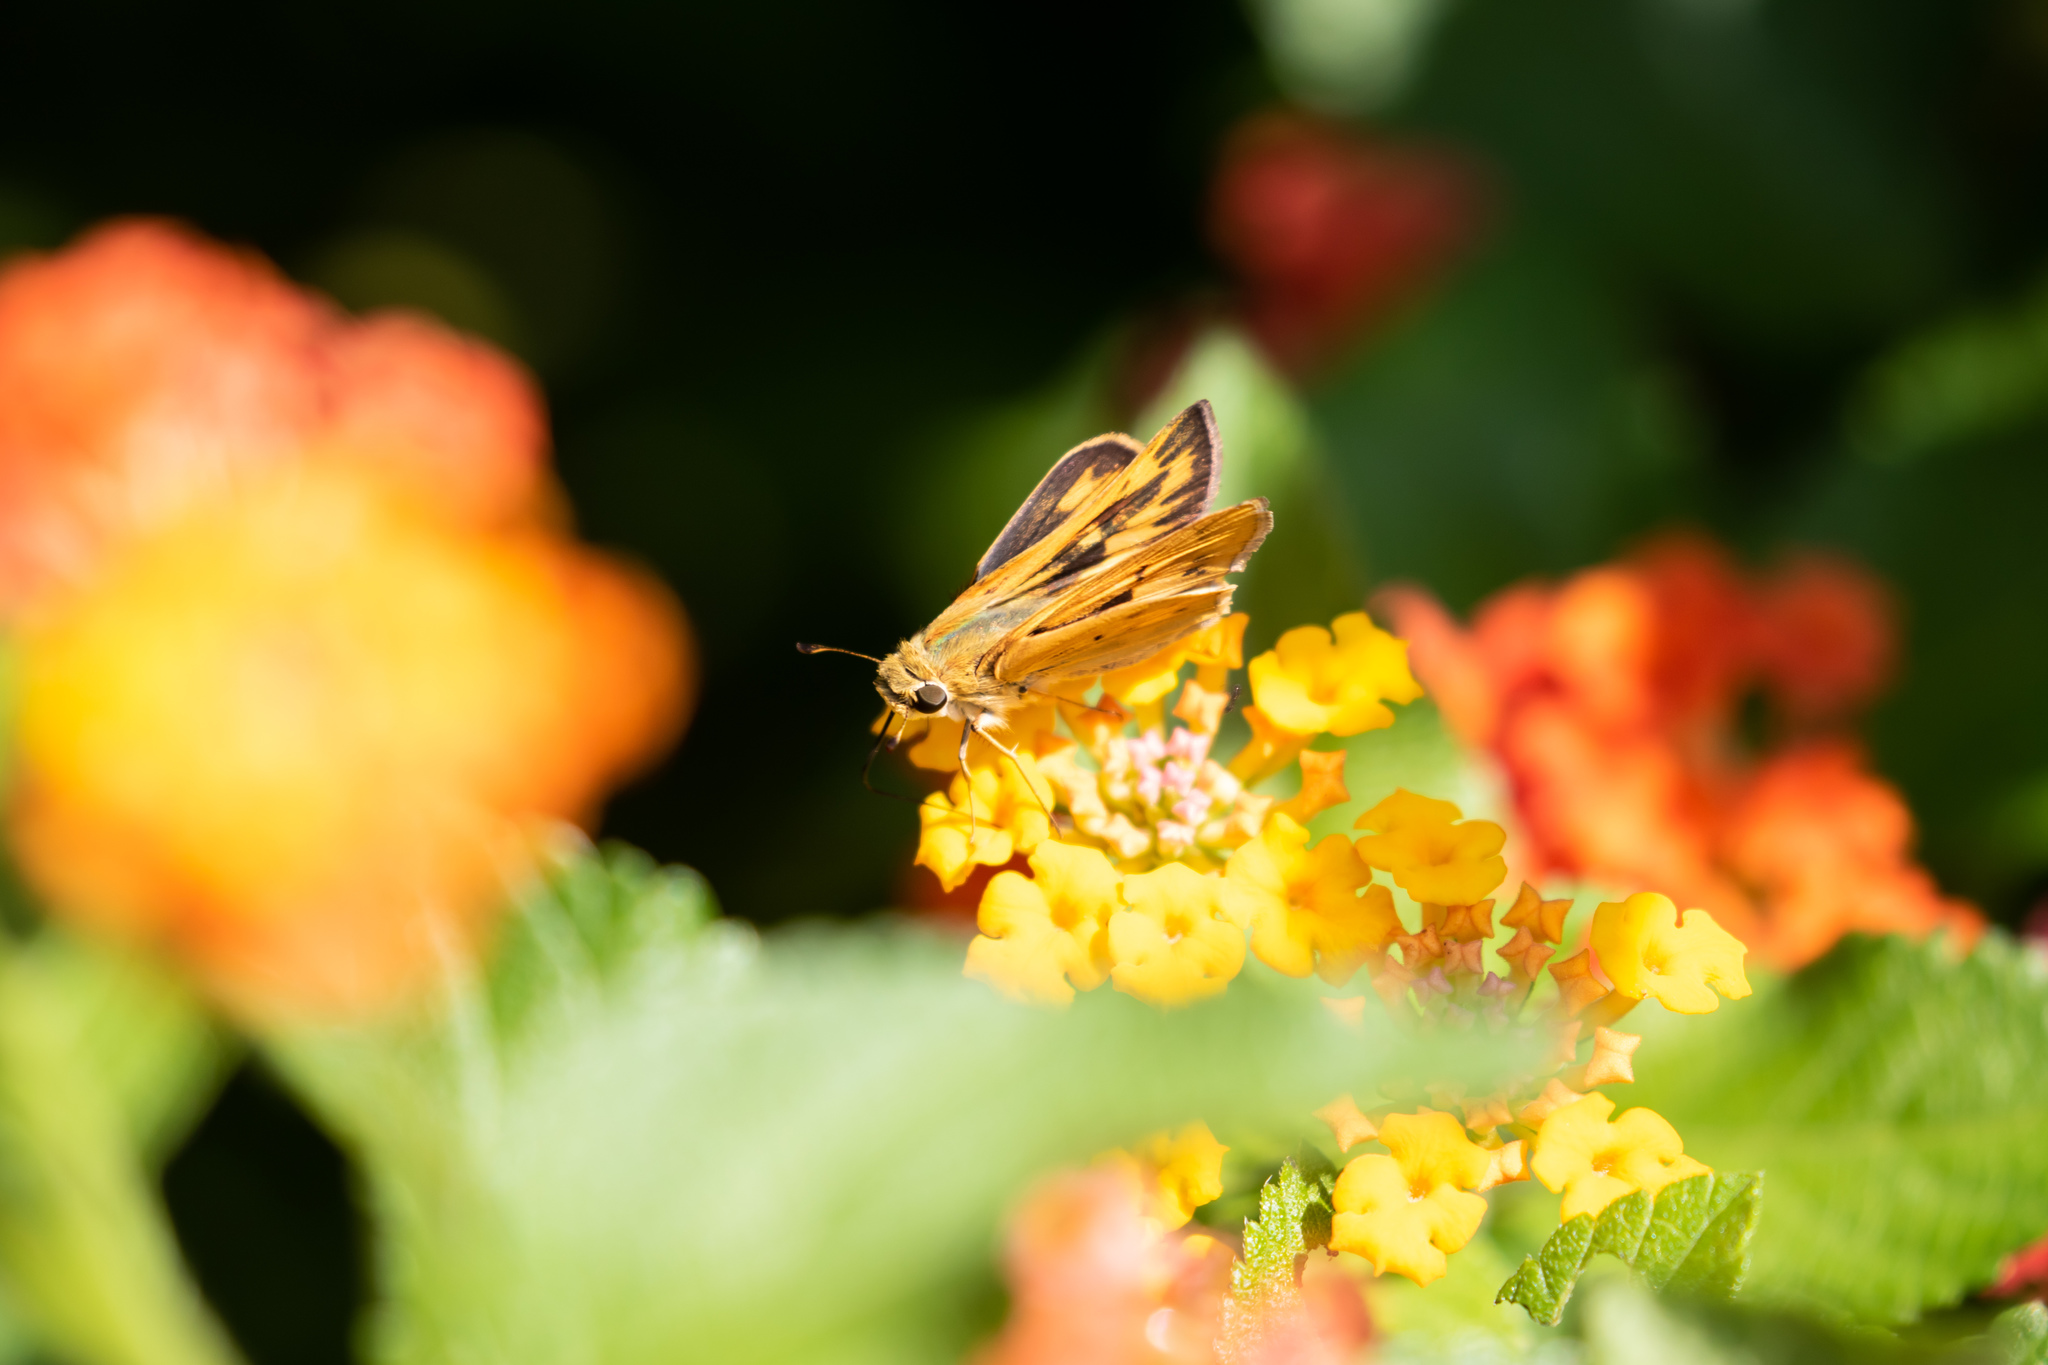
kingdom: Animalia
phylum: Arthropoda
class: Insecta
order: Lepidoptera
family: Hesperiidae
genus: Hylephila
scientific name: Hylephila phyleus
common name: Fiery skipper
